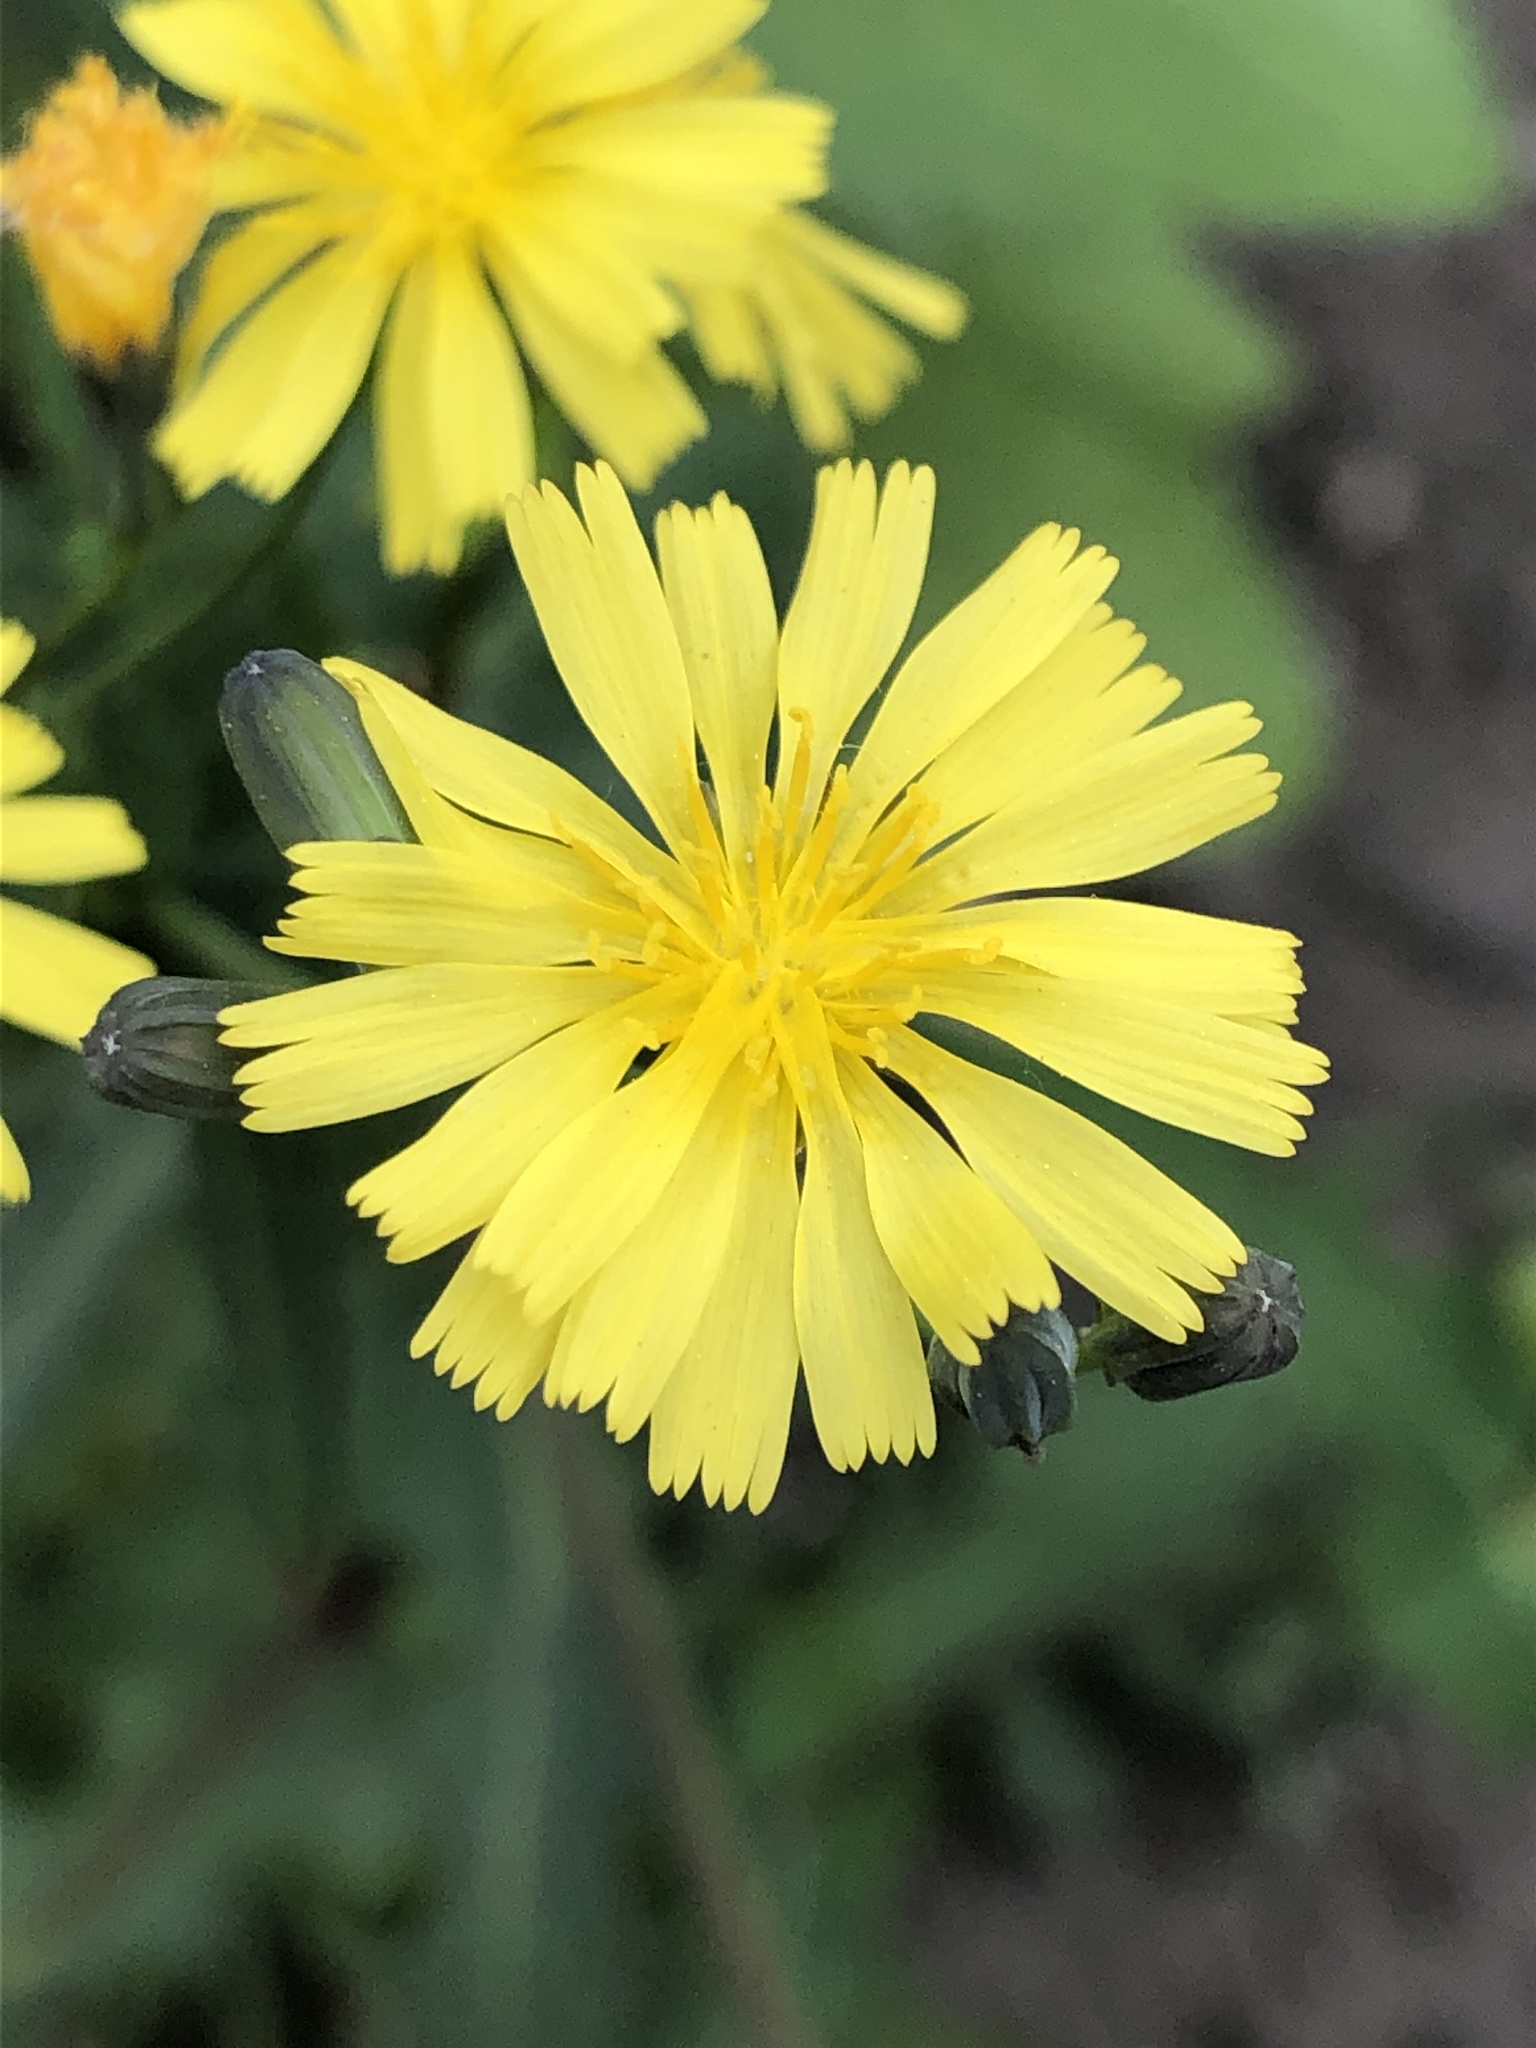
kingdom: Plantae
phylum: Tracheophyta
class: Magnoliopsida
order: Asterales
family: Asteraceae
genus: Ixeris
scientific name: Ixeris chinensis
